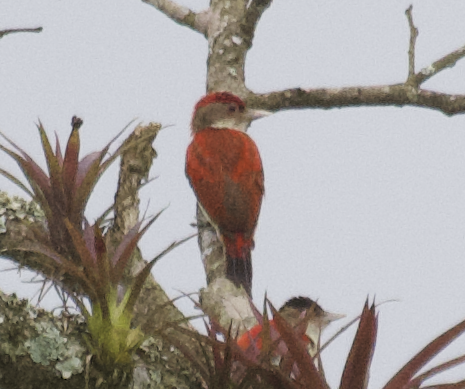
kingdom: Animalia
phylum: Chordata
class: Aves
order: Piciformes
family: Picidae
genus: Veniliornis
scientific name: Veniliornis callonotus
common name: Scarlet-backed woodpecker
